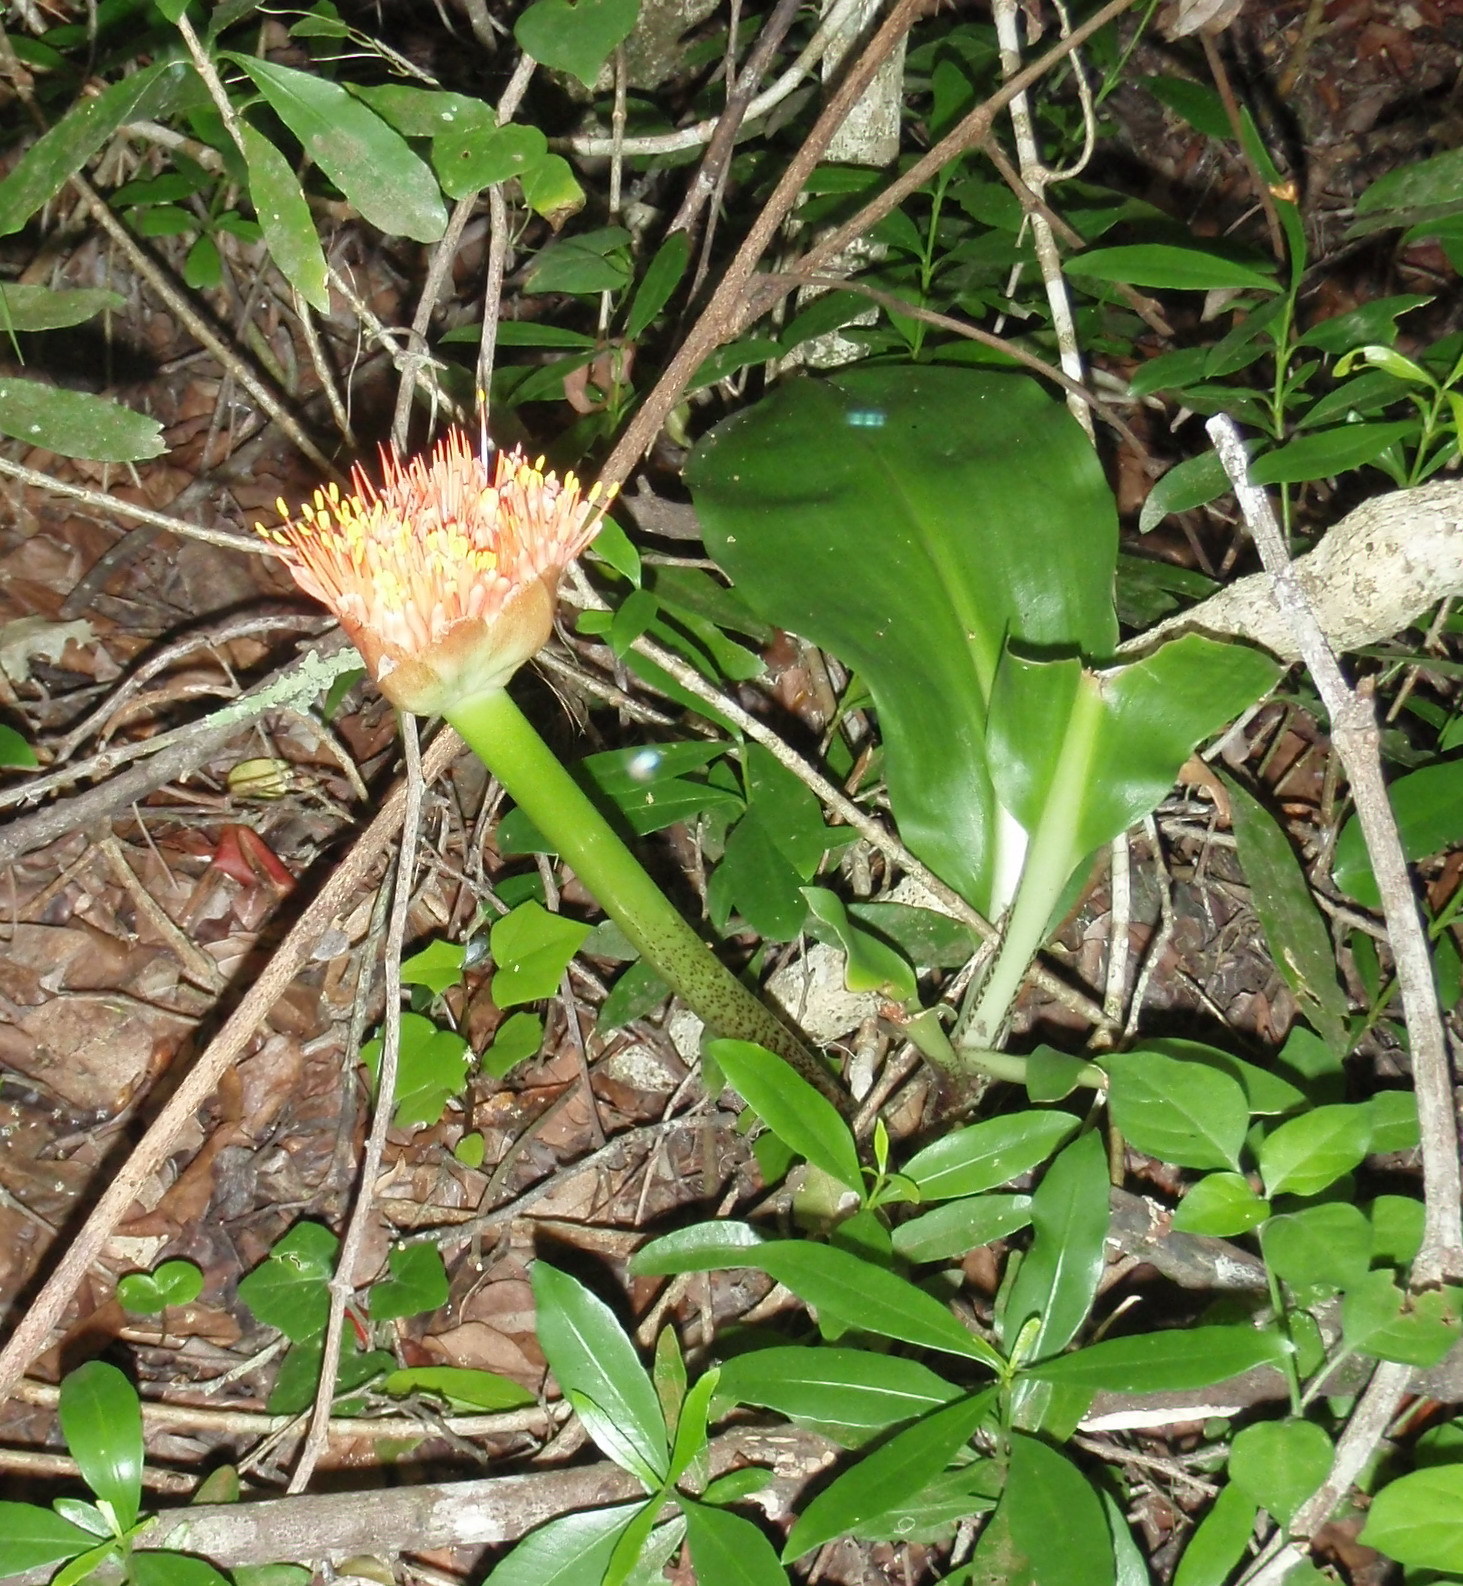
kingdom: Plantae
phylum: Tracheophyta
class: Liliopsida
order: Asparagales
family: Amaryllidaceae
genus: Scadoxus
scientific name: Scadoxus puniceus
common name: Royal-paintbrush
